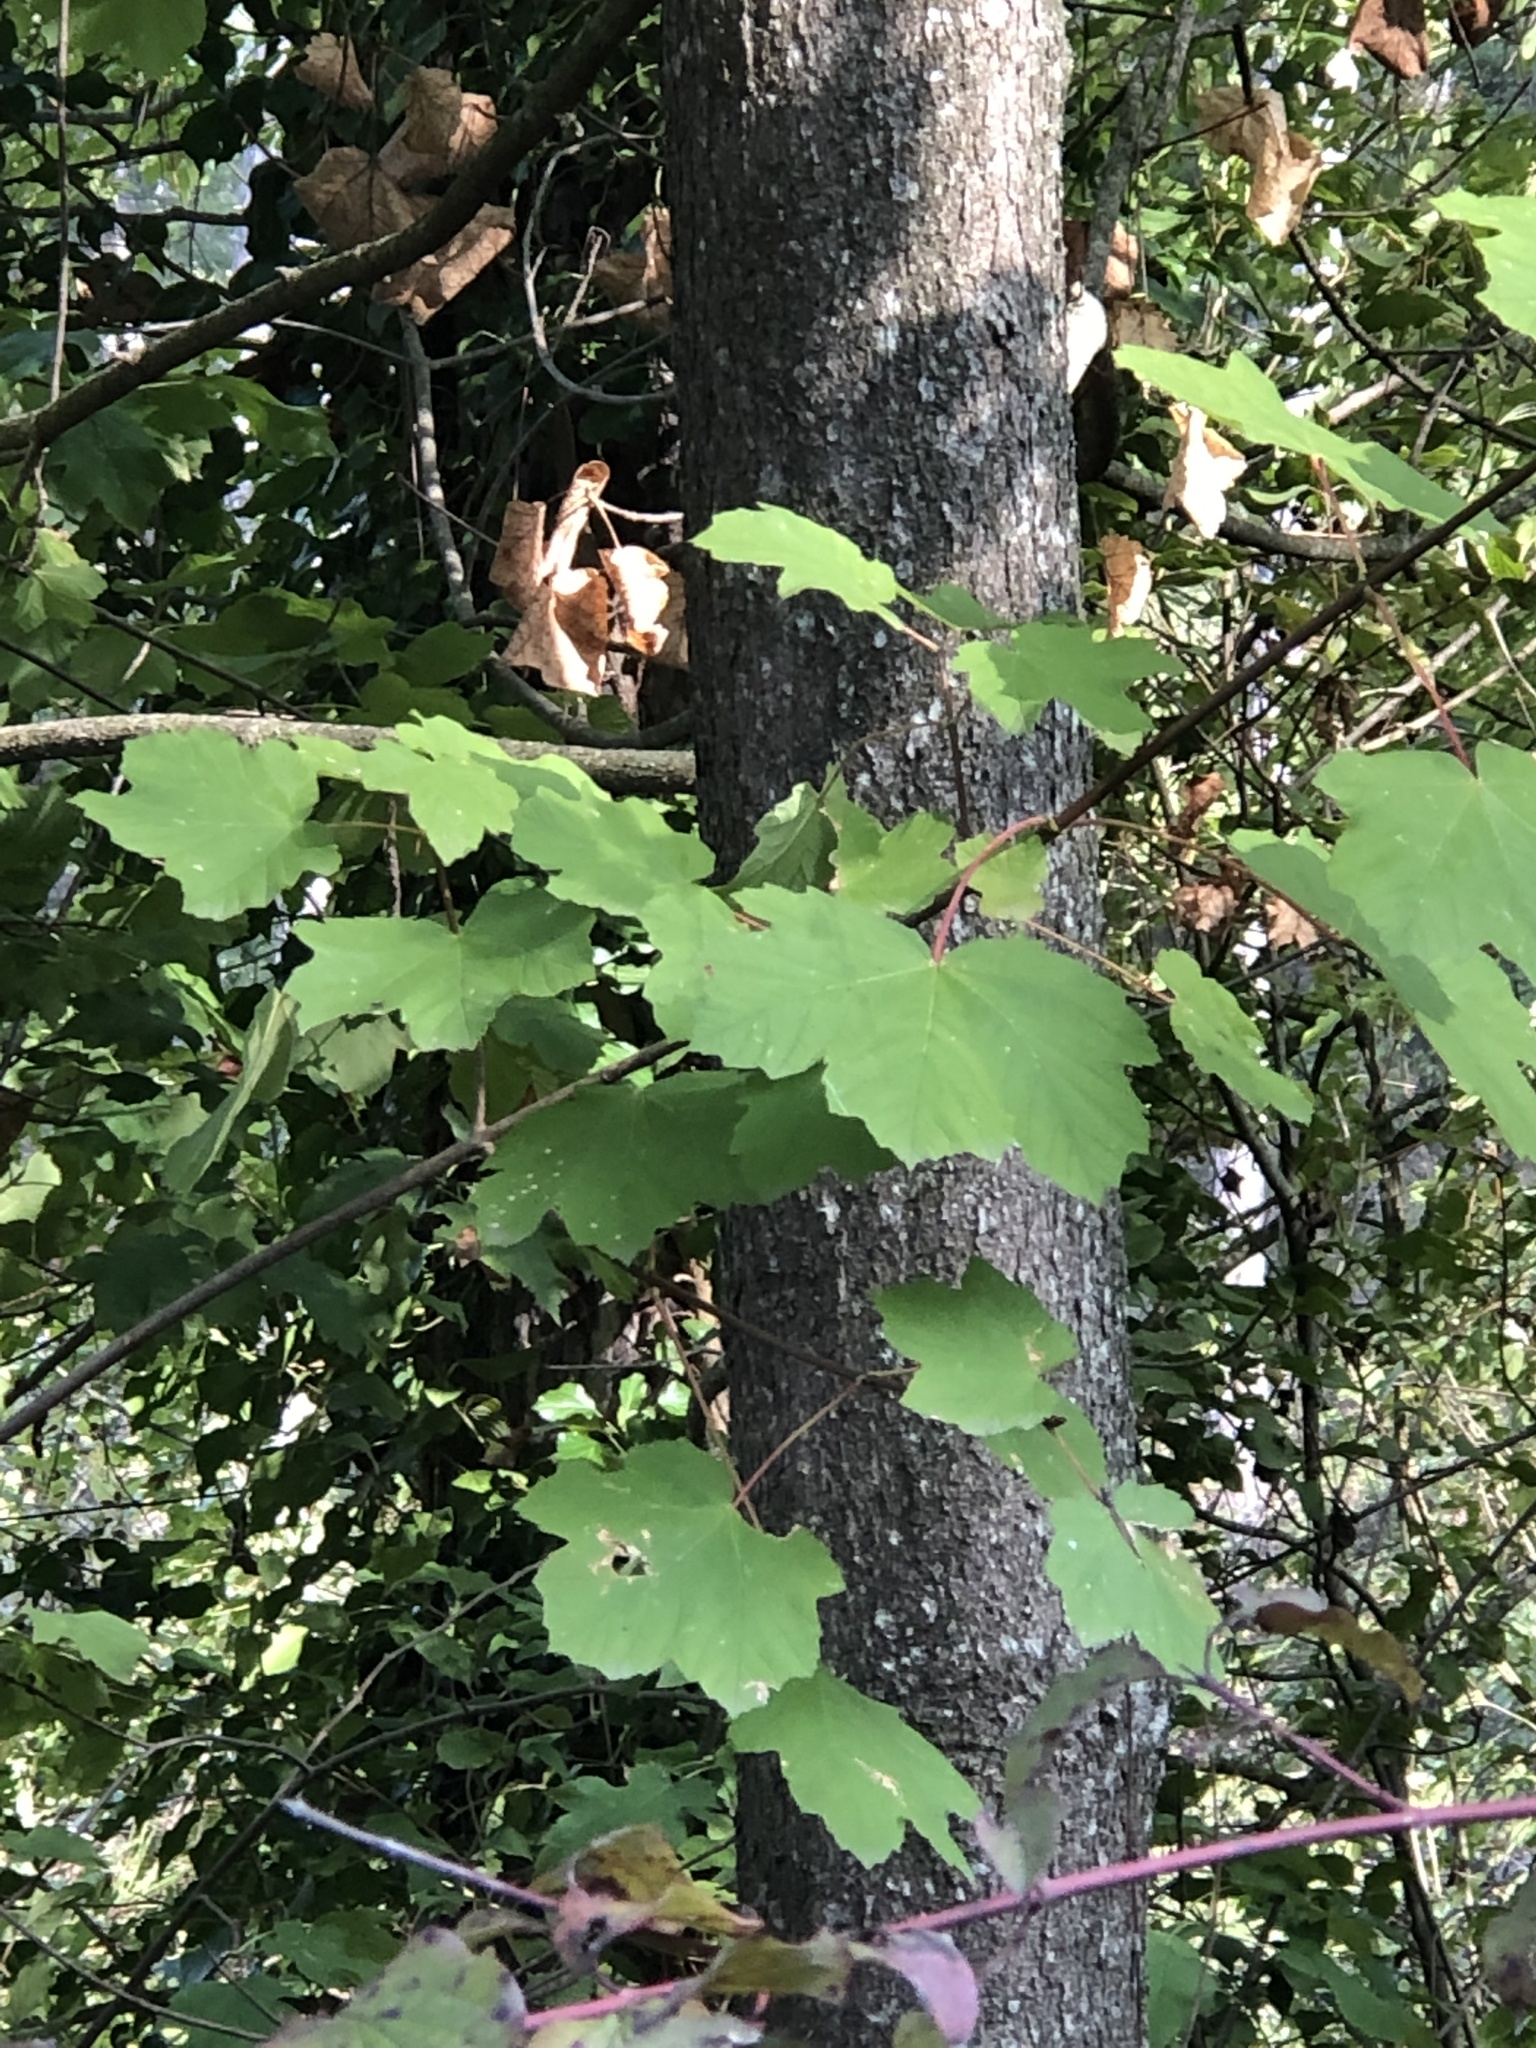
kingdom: Plantae
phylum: Tracheophyta
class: Magnoliopsida
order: Sapindales
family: Sapindaceae
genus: Acer
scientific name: Acer opalus
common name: Italian maple
